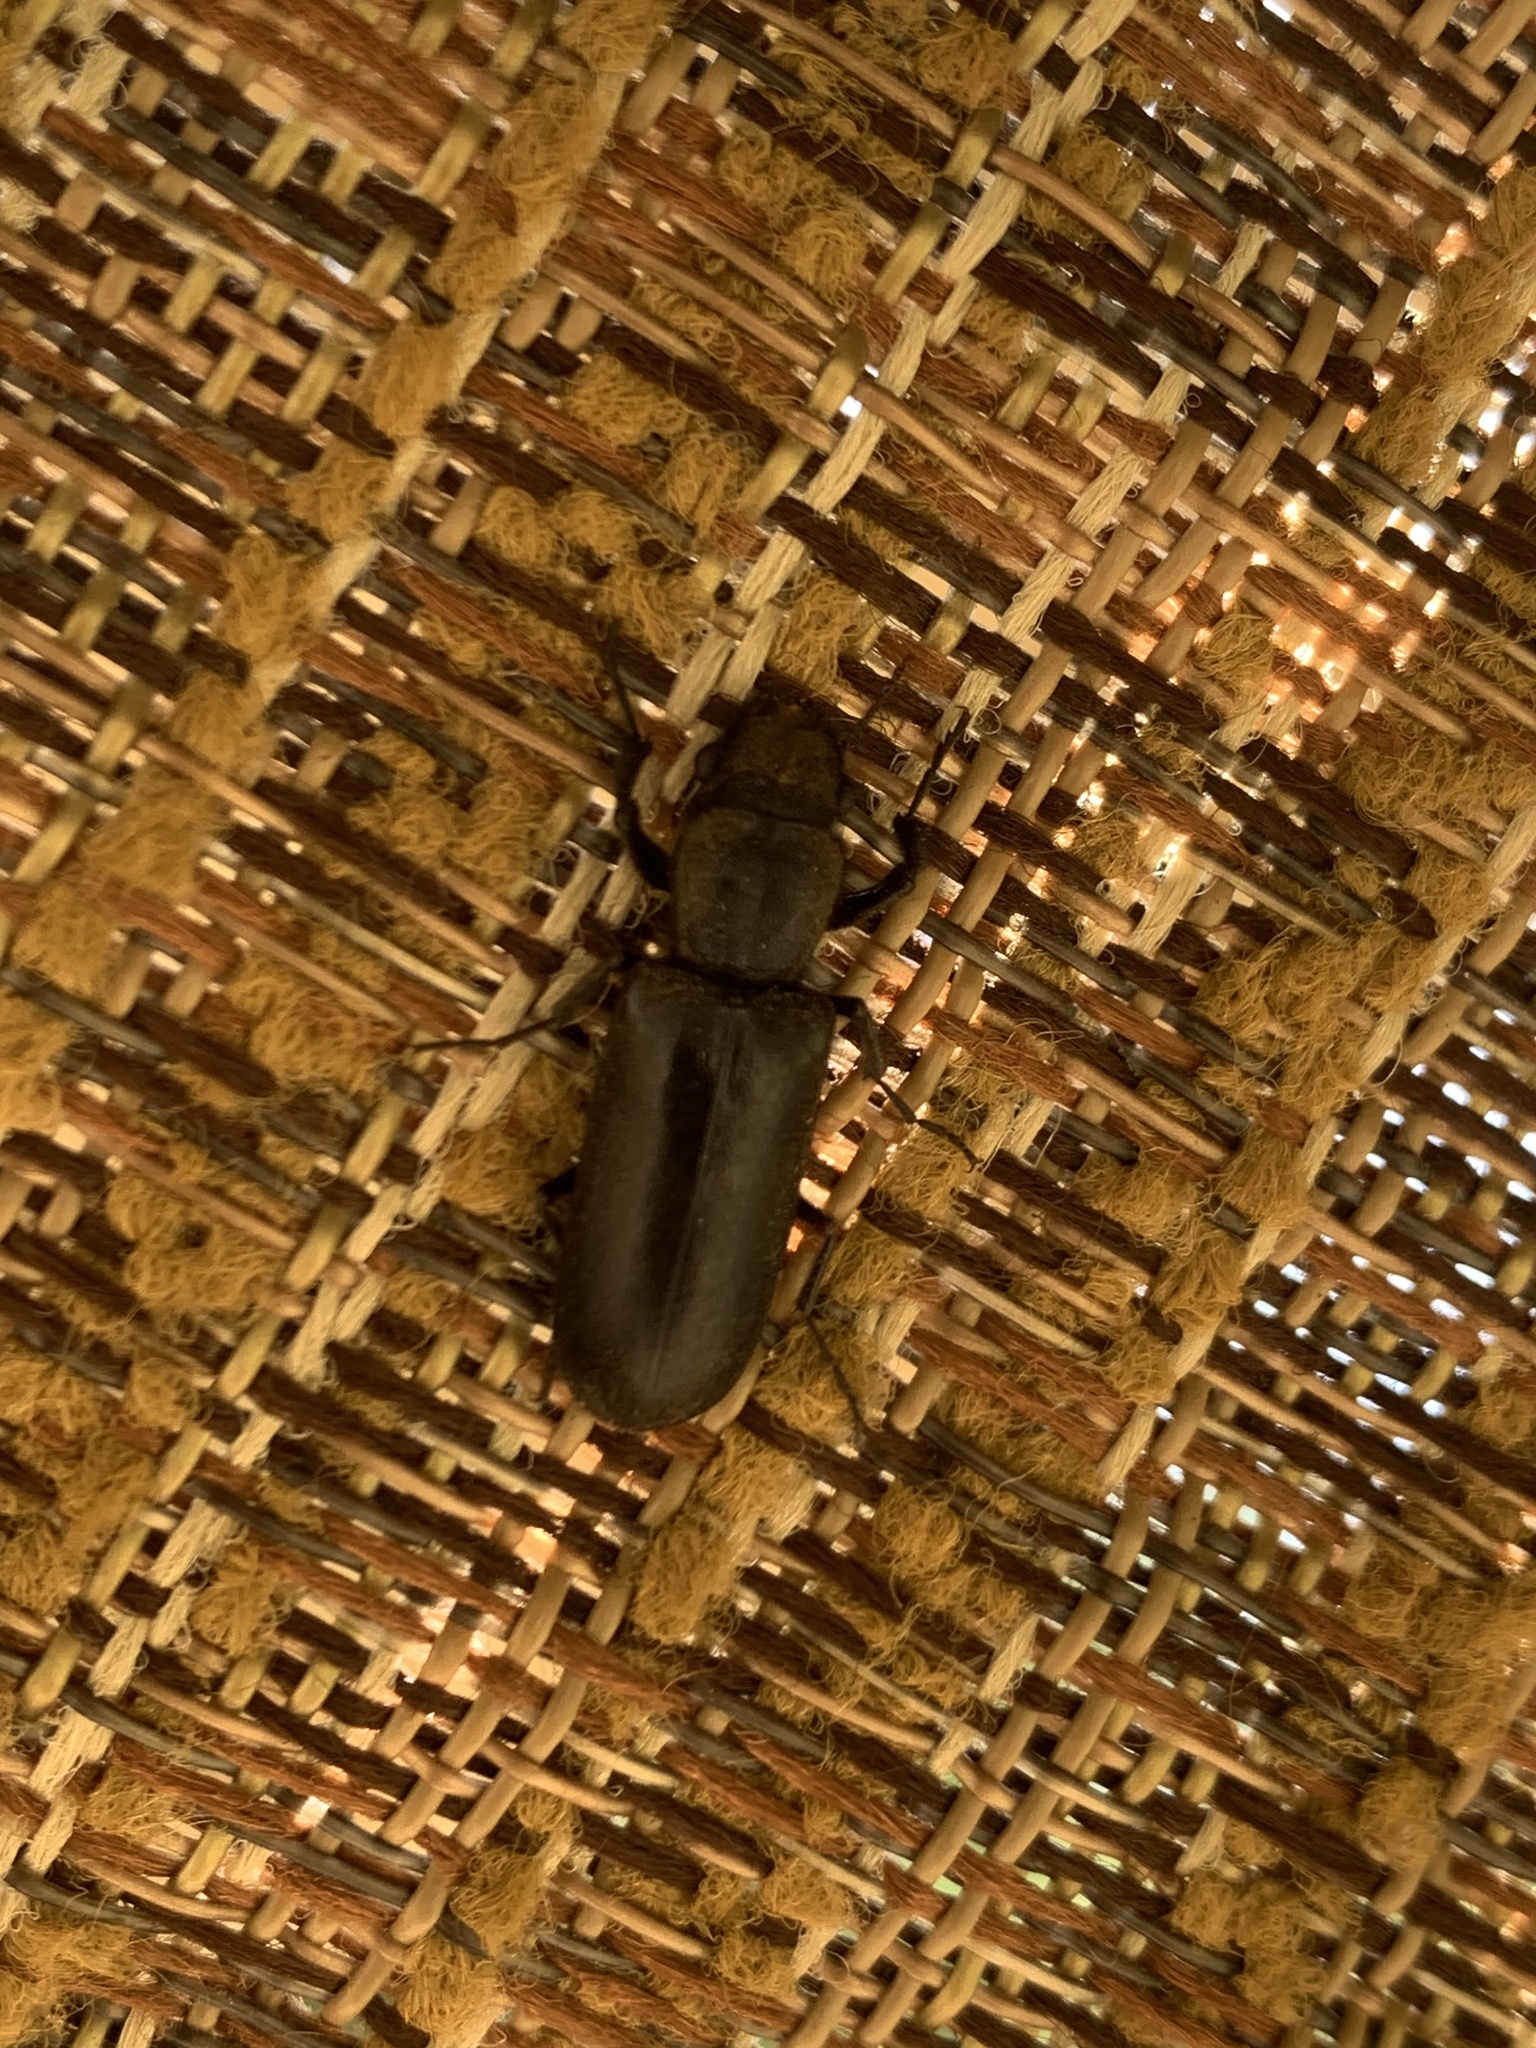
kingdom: Animalia
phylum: Arthropoda
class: Insecta
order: Coleoptera
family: Bostrichidae
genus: Polycaon
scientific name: Polycaon stoutii
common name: Powderpost beetle
